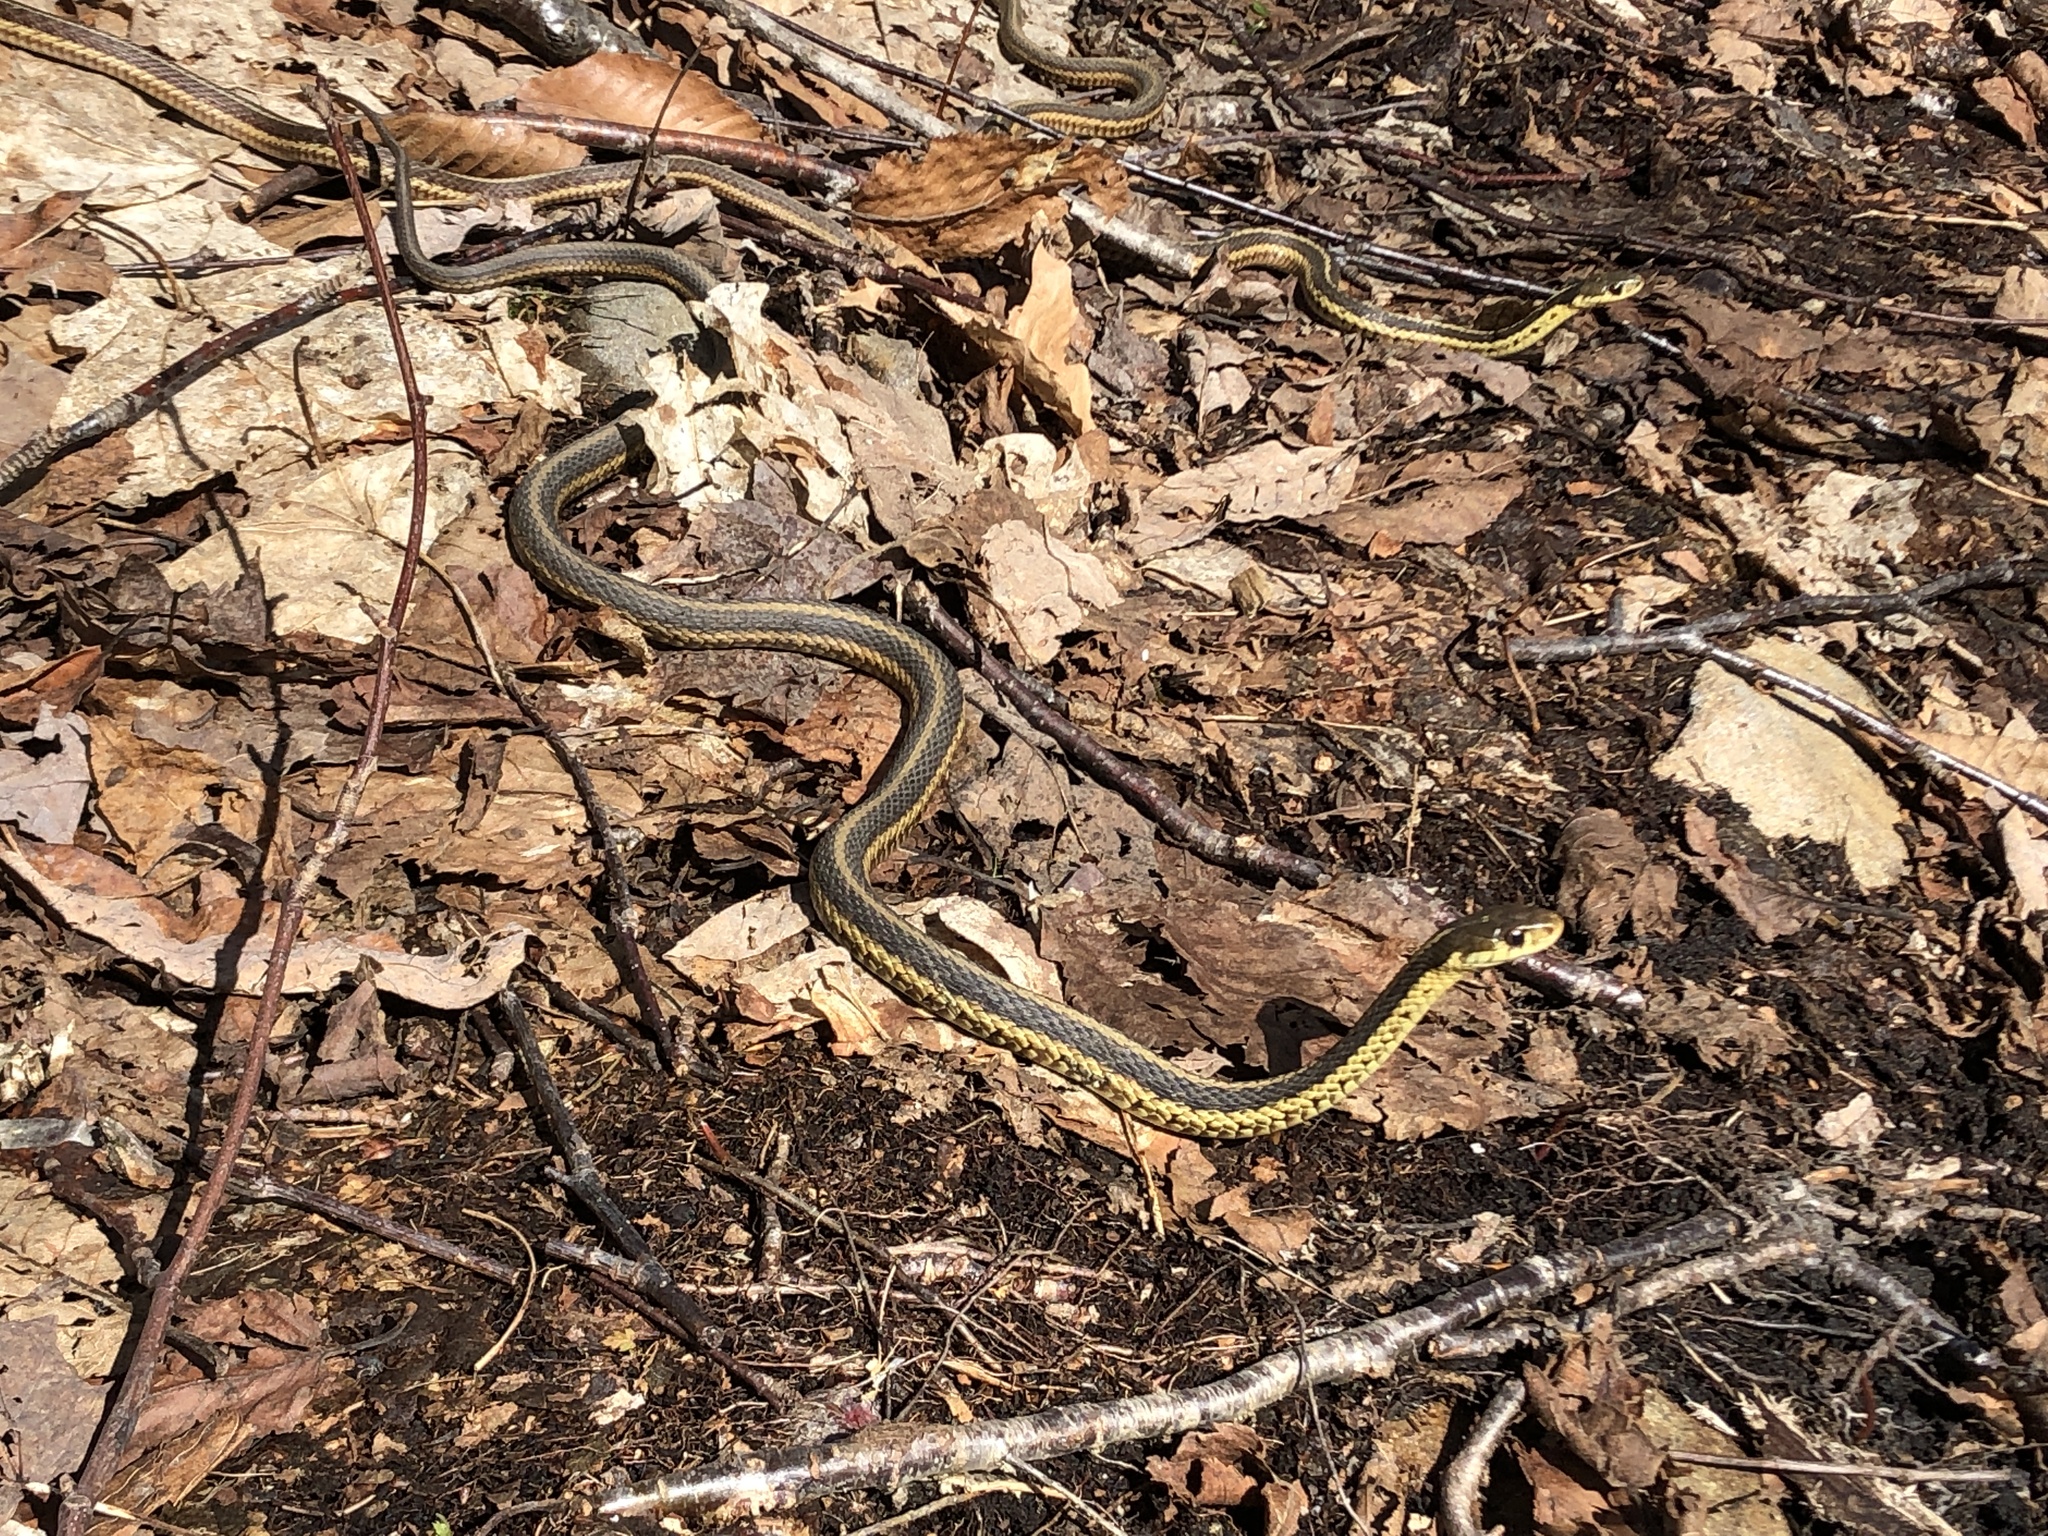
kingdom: Animalia
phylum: Chordata
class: Squamata
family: Colubridae
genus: Thamnophis
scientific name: Thamnophis sirtalis
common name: Common garter snake
